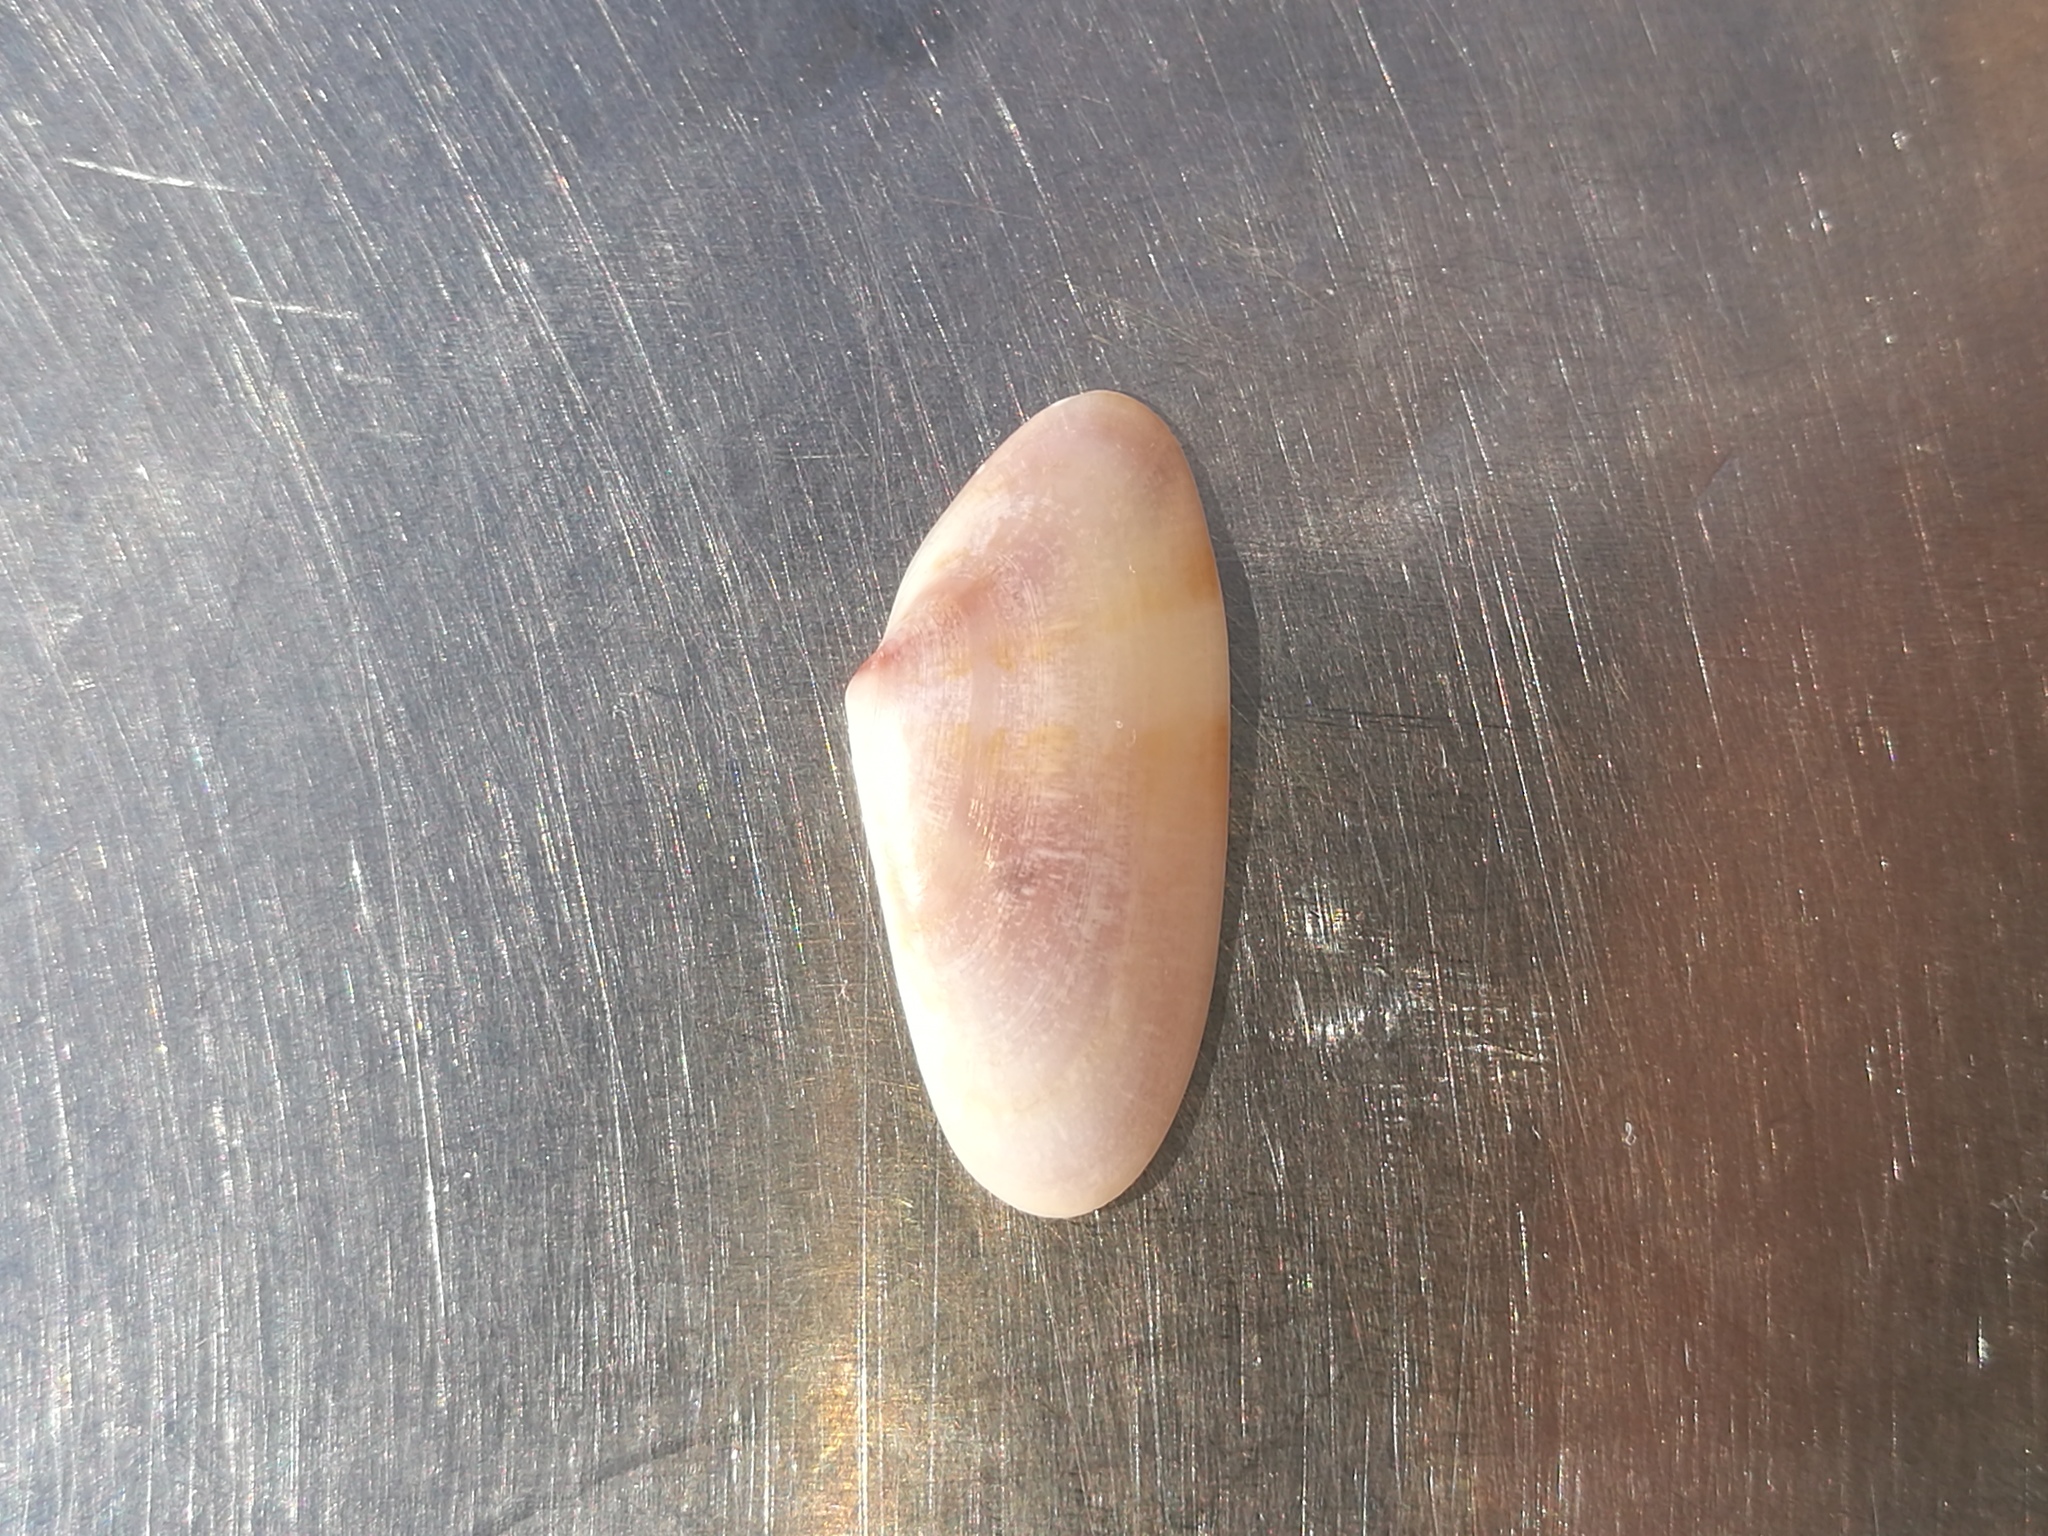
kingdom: Animalia
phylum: Mollusca
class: Bivalvia
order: Cardiida
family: Donacidae
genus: Donax
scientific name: Donax variegatus
